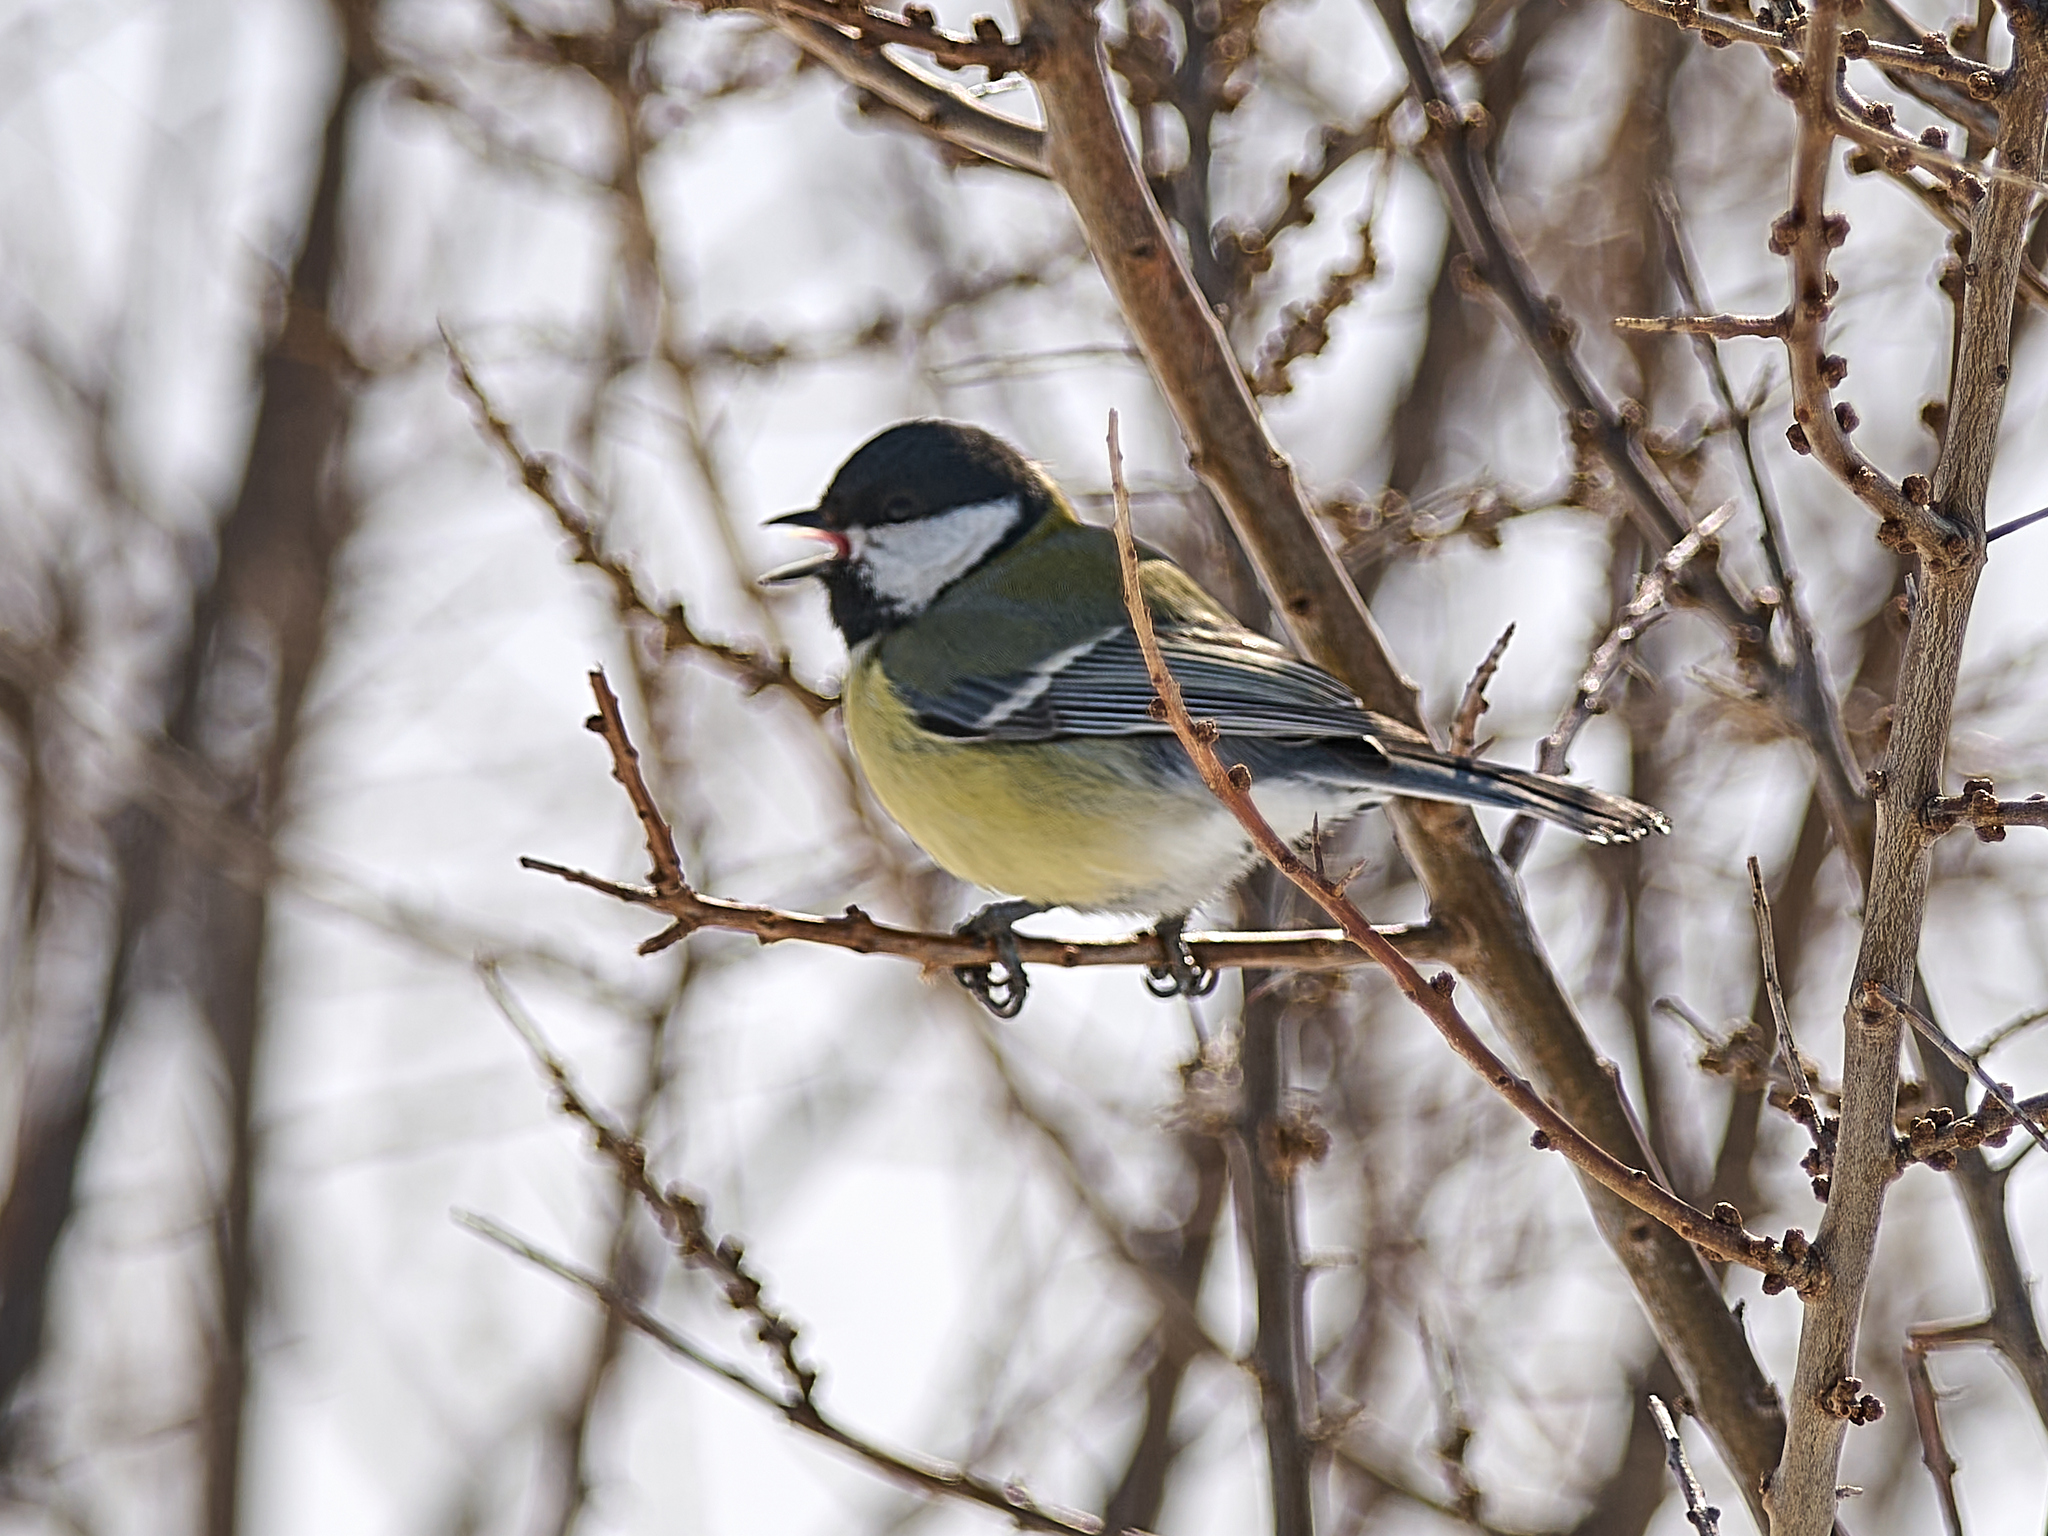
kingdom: Animalia
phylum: Chordata
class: Aves
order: Passeriformes
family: Paridae
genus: Parus
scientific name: Parus major
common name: Great tit
